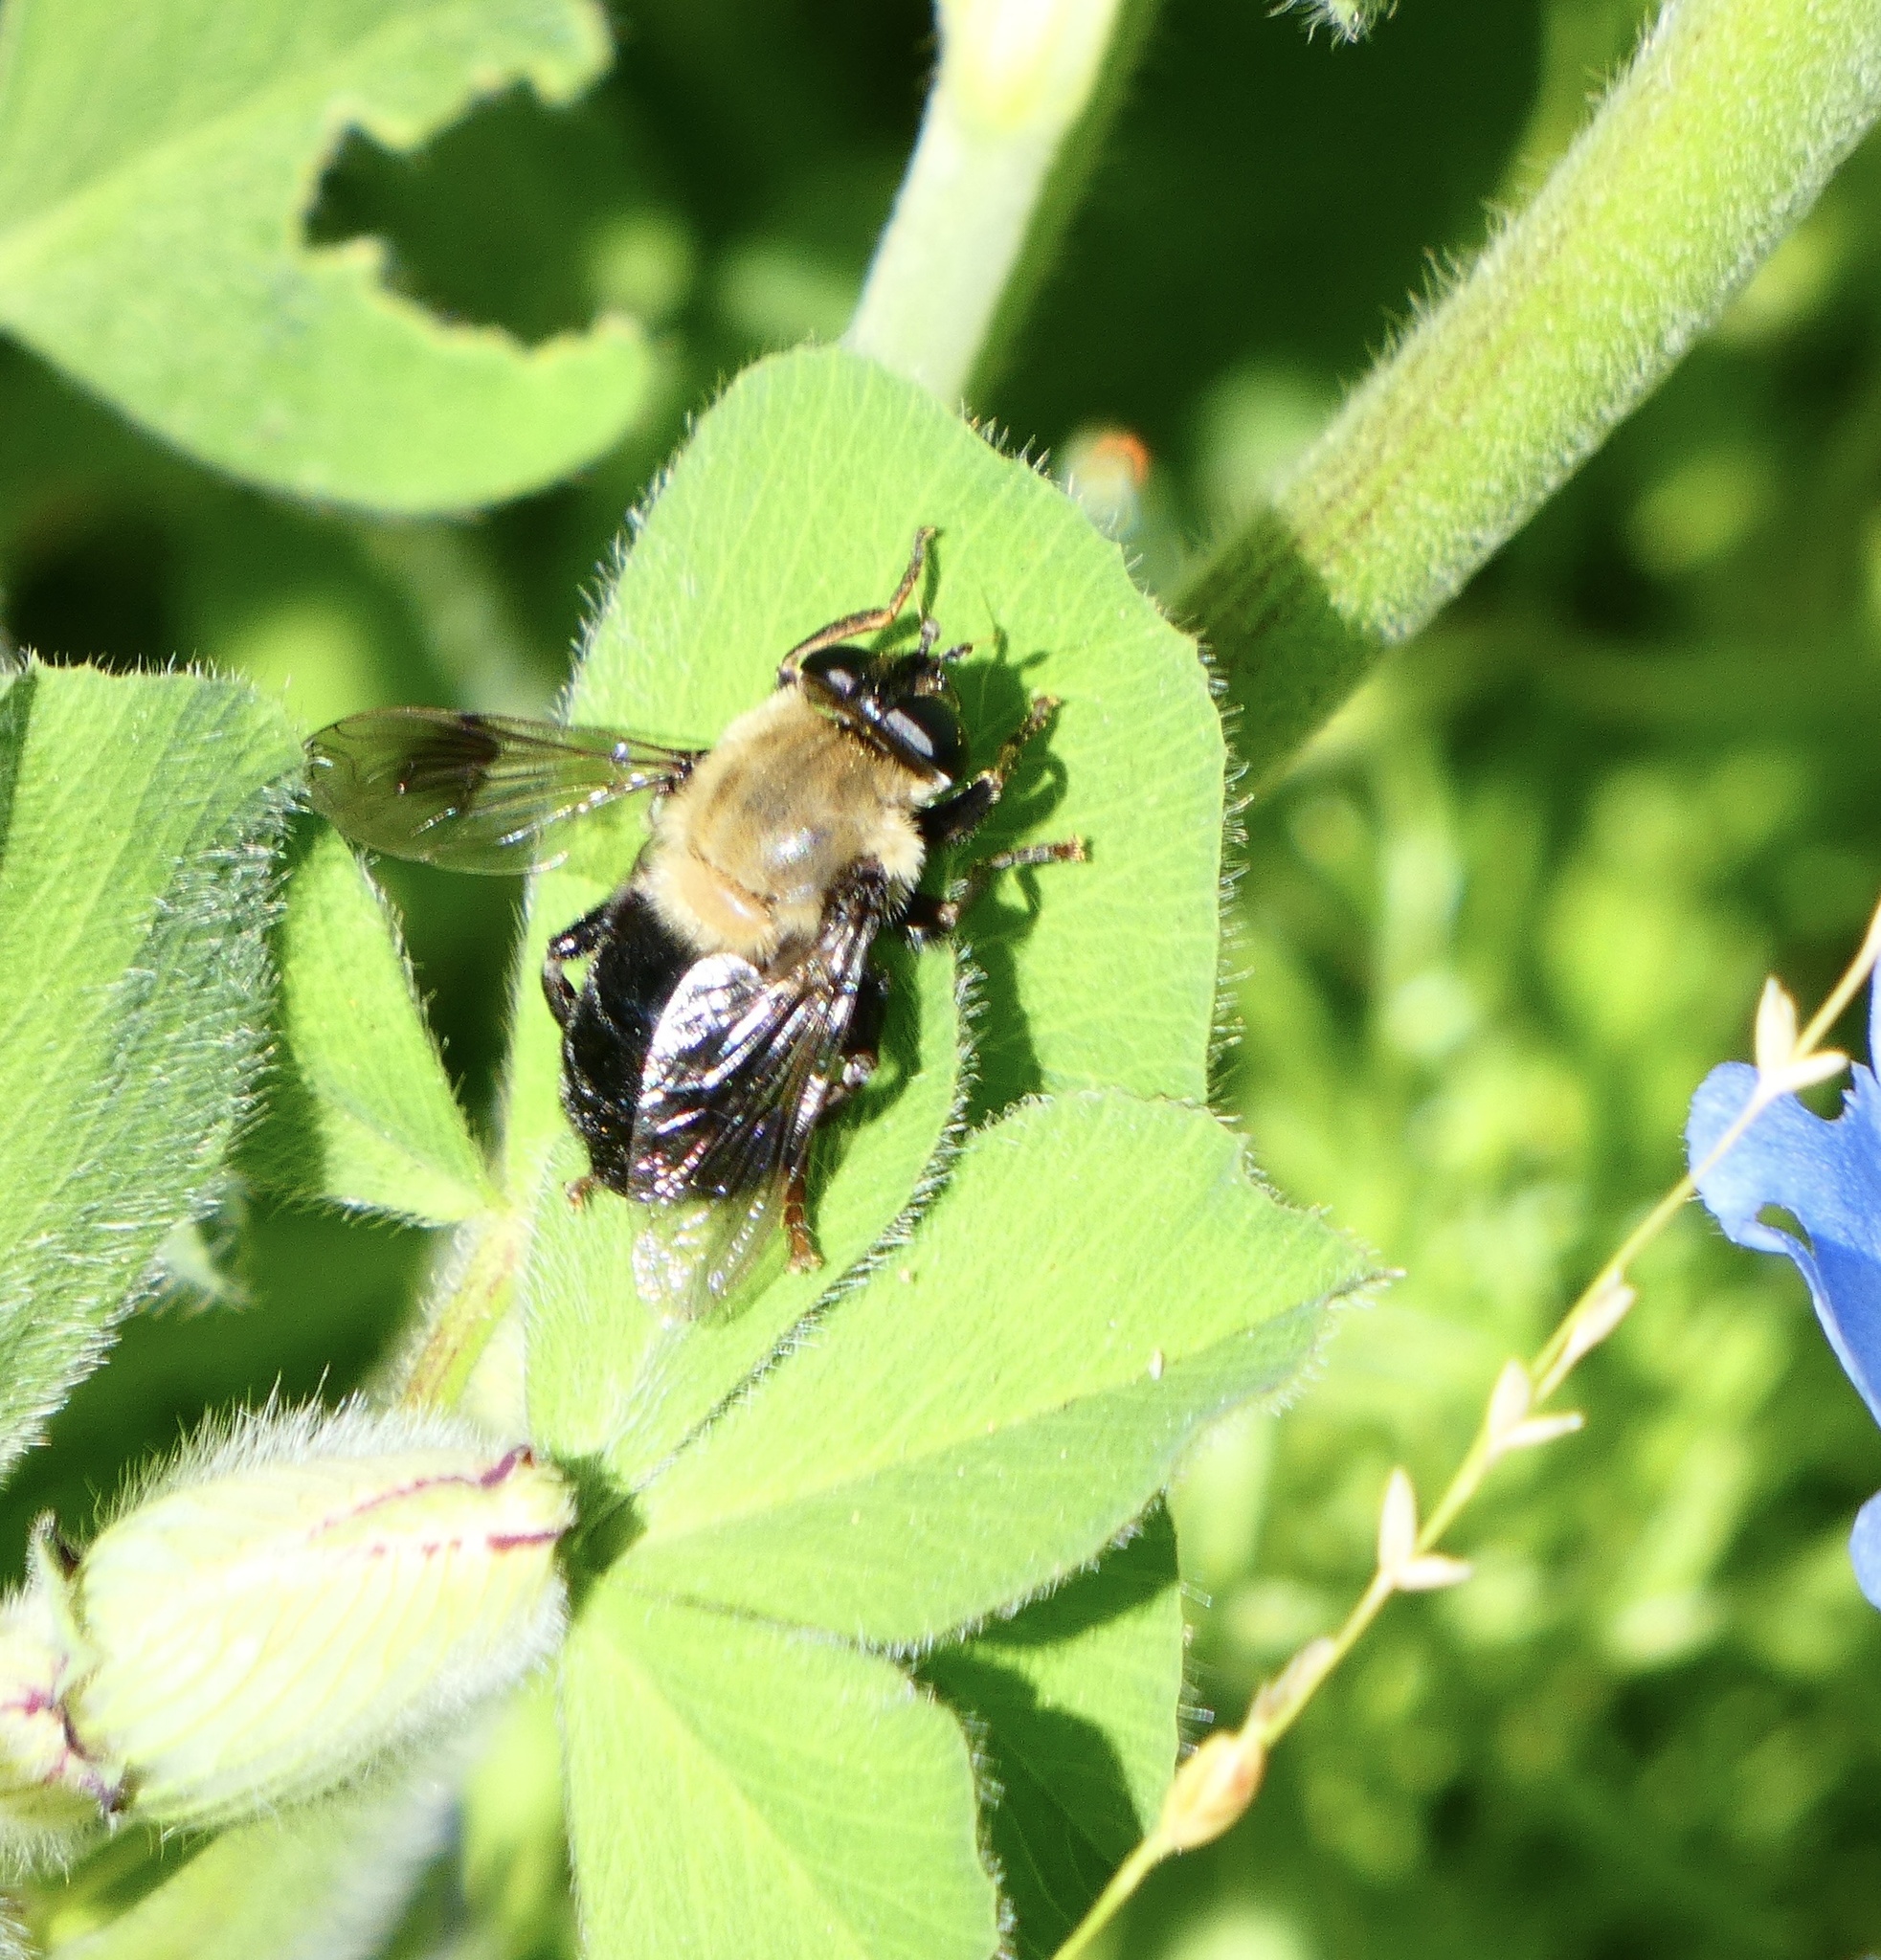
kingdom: Animalia
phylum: Arthropoda
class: Insecta
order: Diptera
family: Syrphidae
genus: Imatisma
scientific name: Imatisma sackeni
